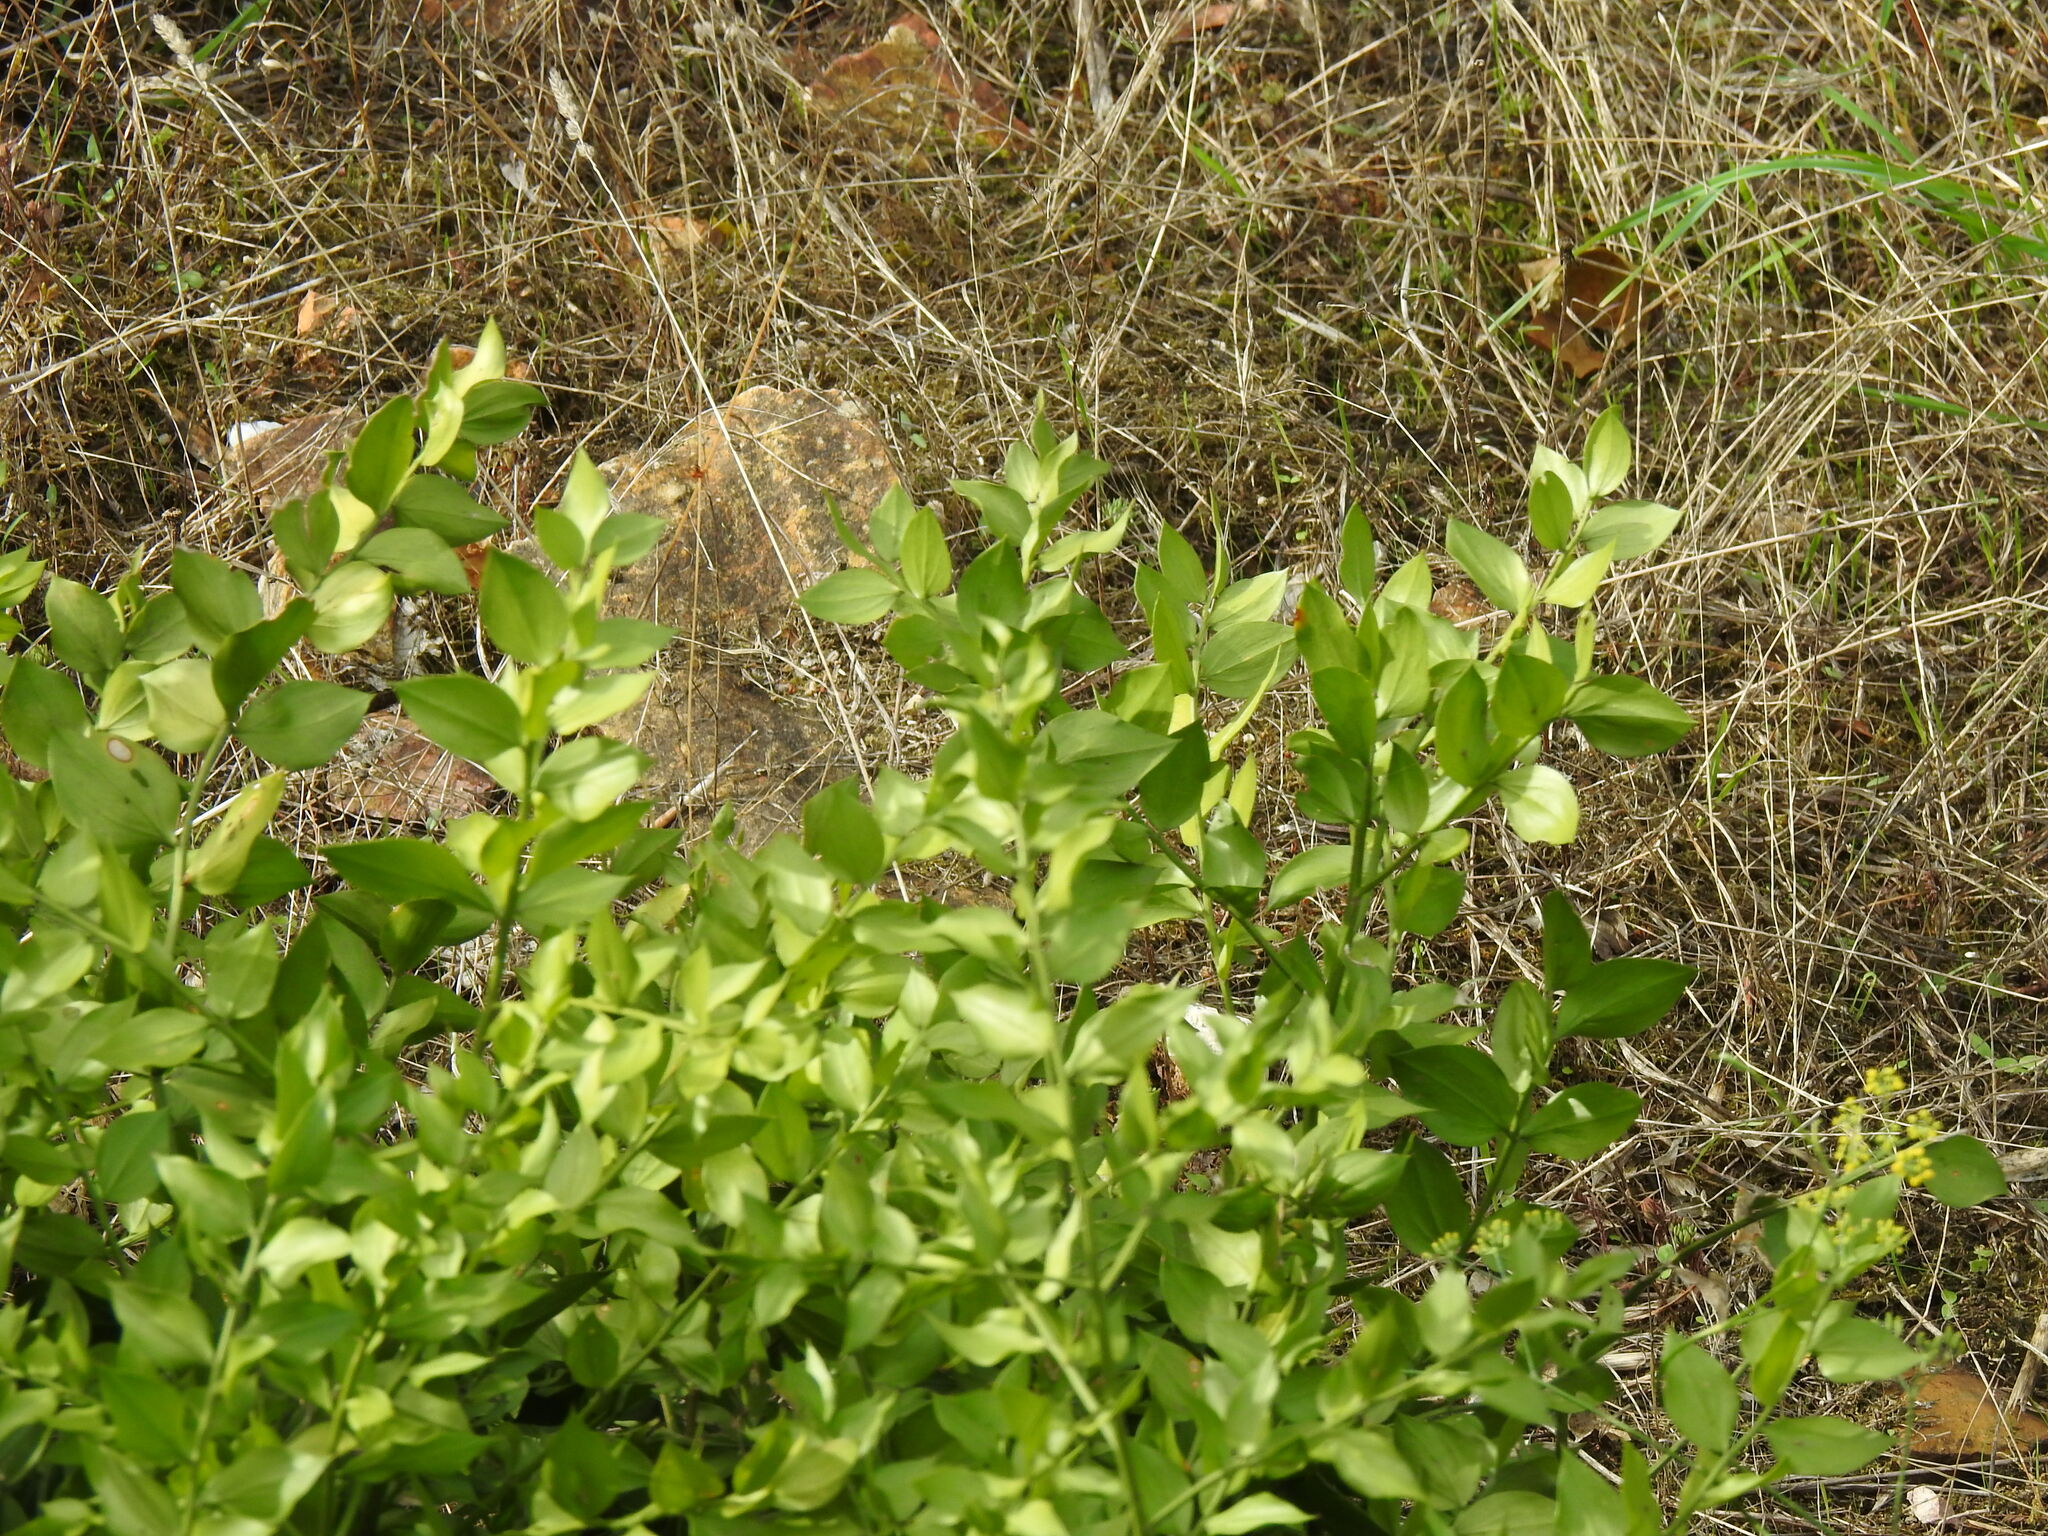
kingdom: Plantae
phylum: Tracheophyta
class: Liliopsida
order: Asparagales
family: Asparagaceae
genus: Ruscus
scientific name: Ruscus aculeatus
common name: Butcher's-broom
